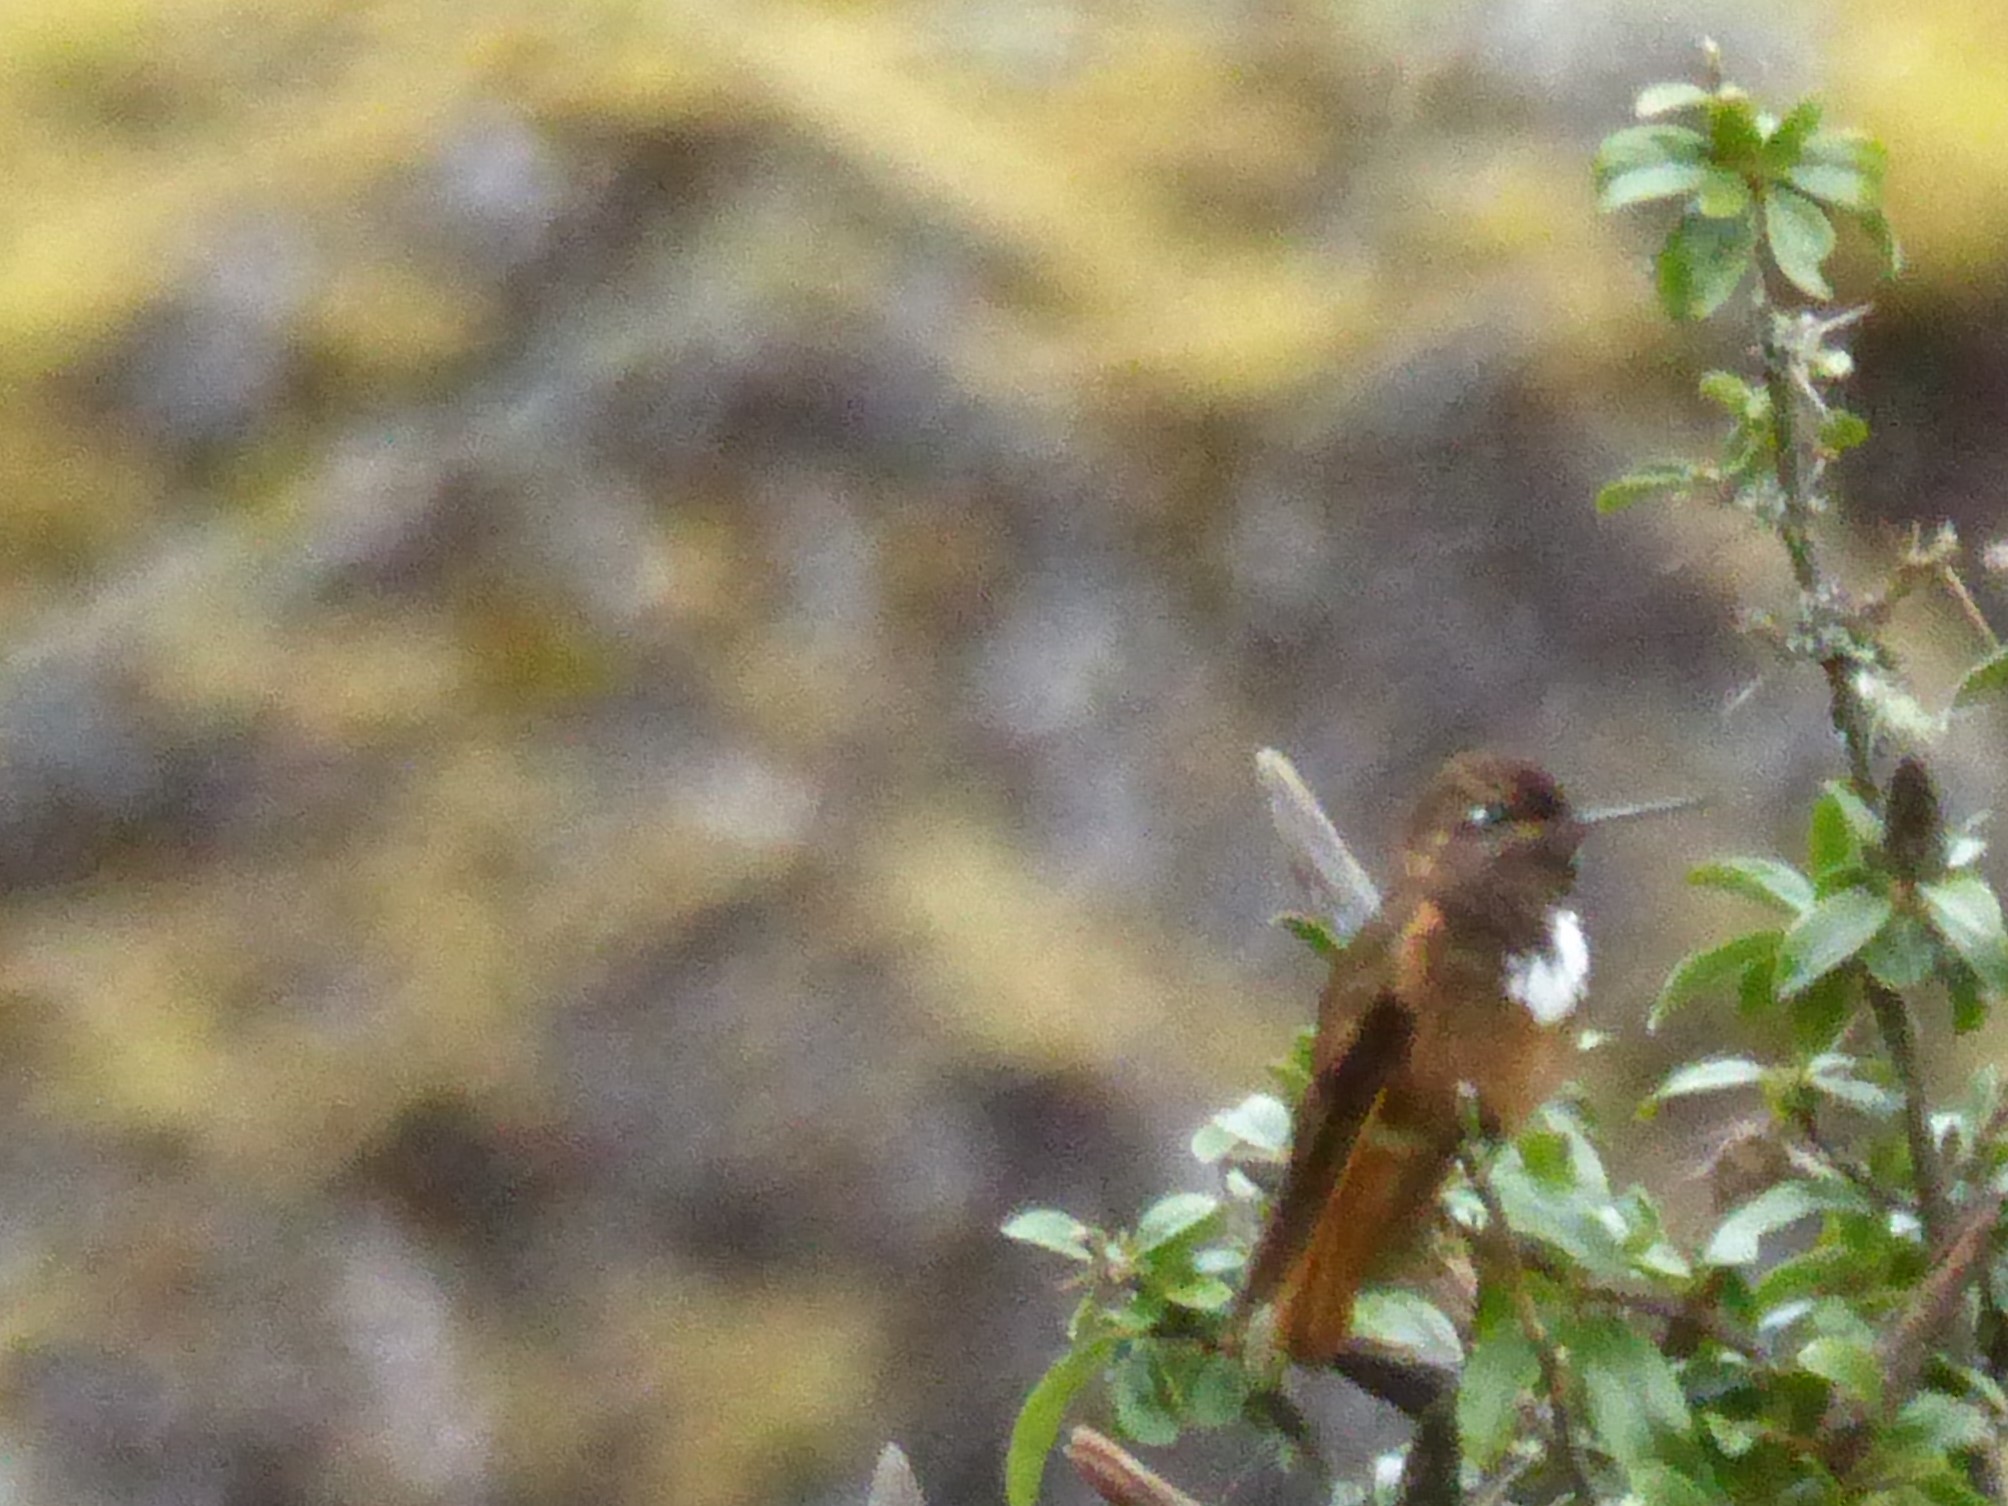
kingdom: Animalia
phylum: Chordata
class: Aves
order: Apodiformes
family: Trochilidae
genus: Aglaeactis
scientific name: Aglaeactis castelnaudii
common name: White-tufted sunbeam
